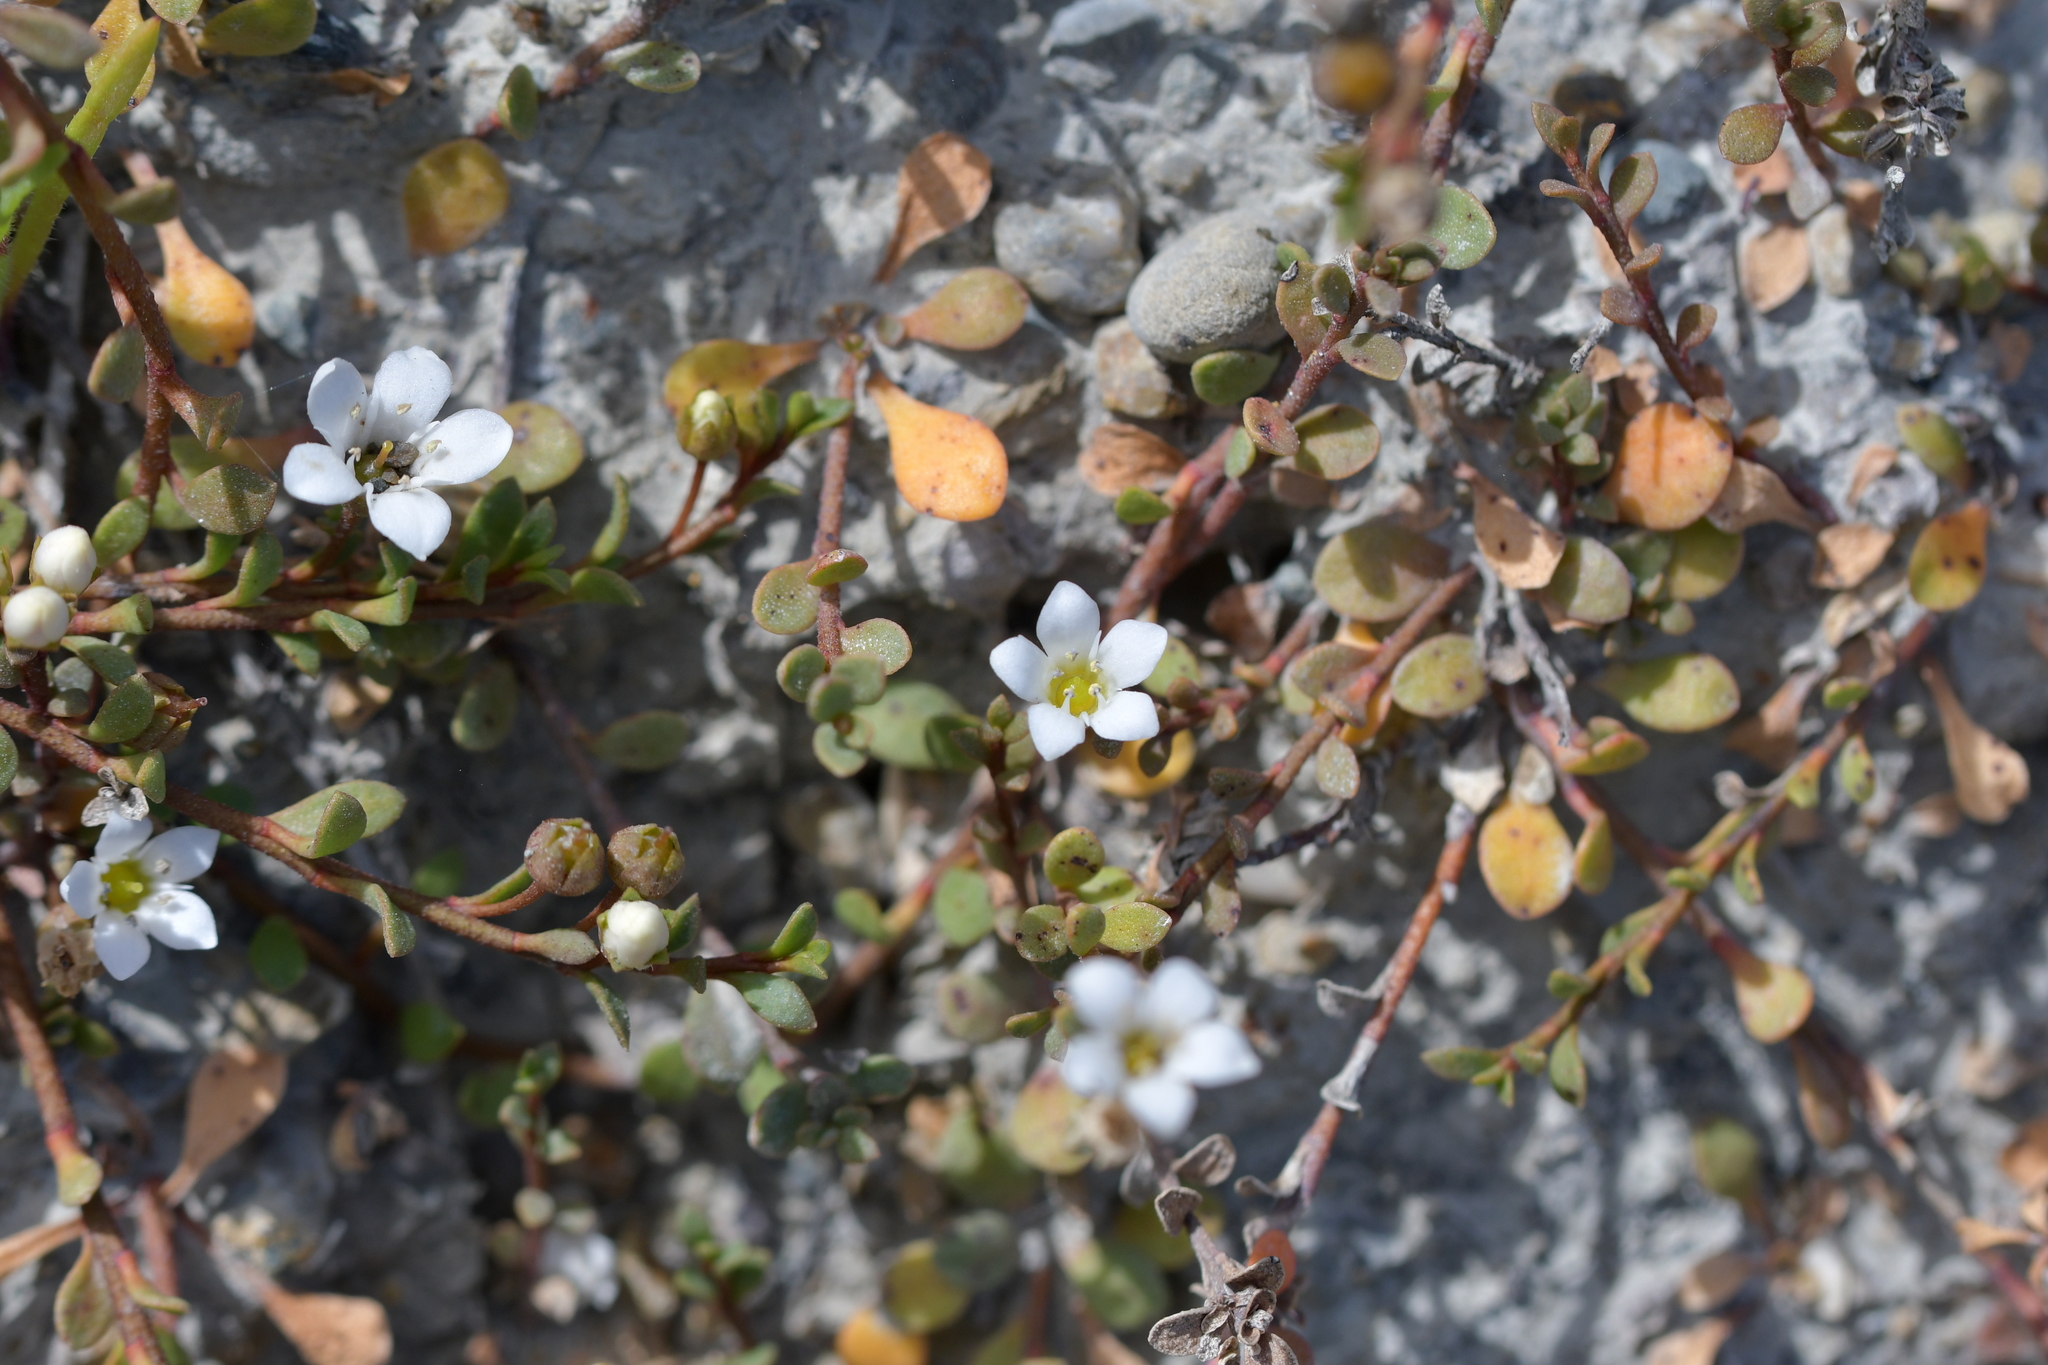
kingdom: Plantae
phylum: Tracheophyta
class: Magnoliopsida
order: Ericales
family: Primulaceae
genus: Samolus
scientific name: Samolus repens
